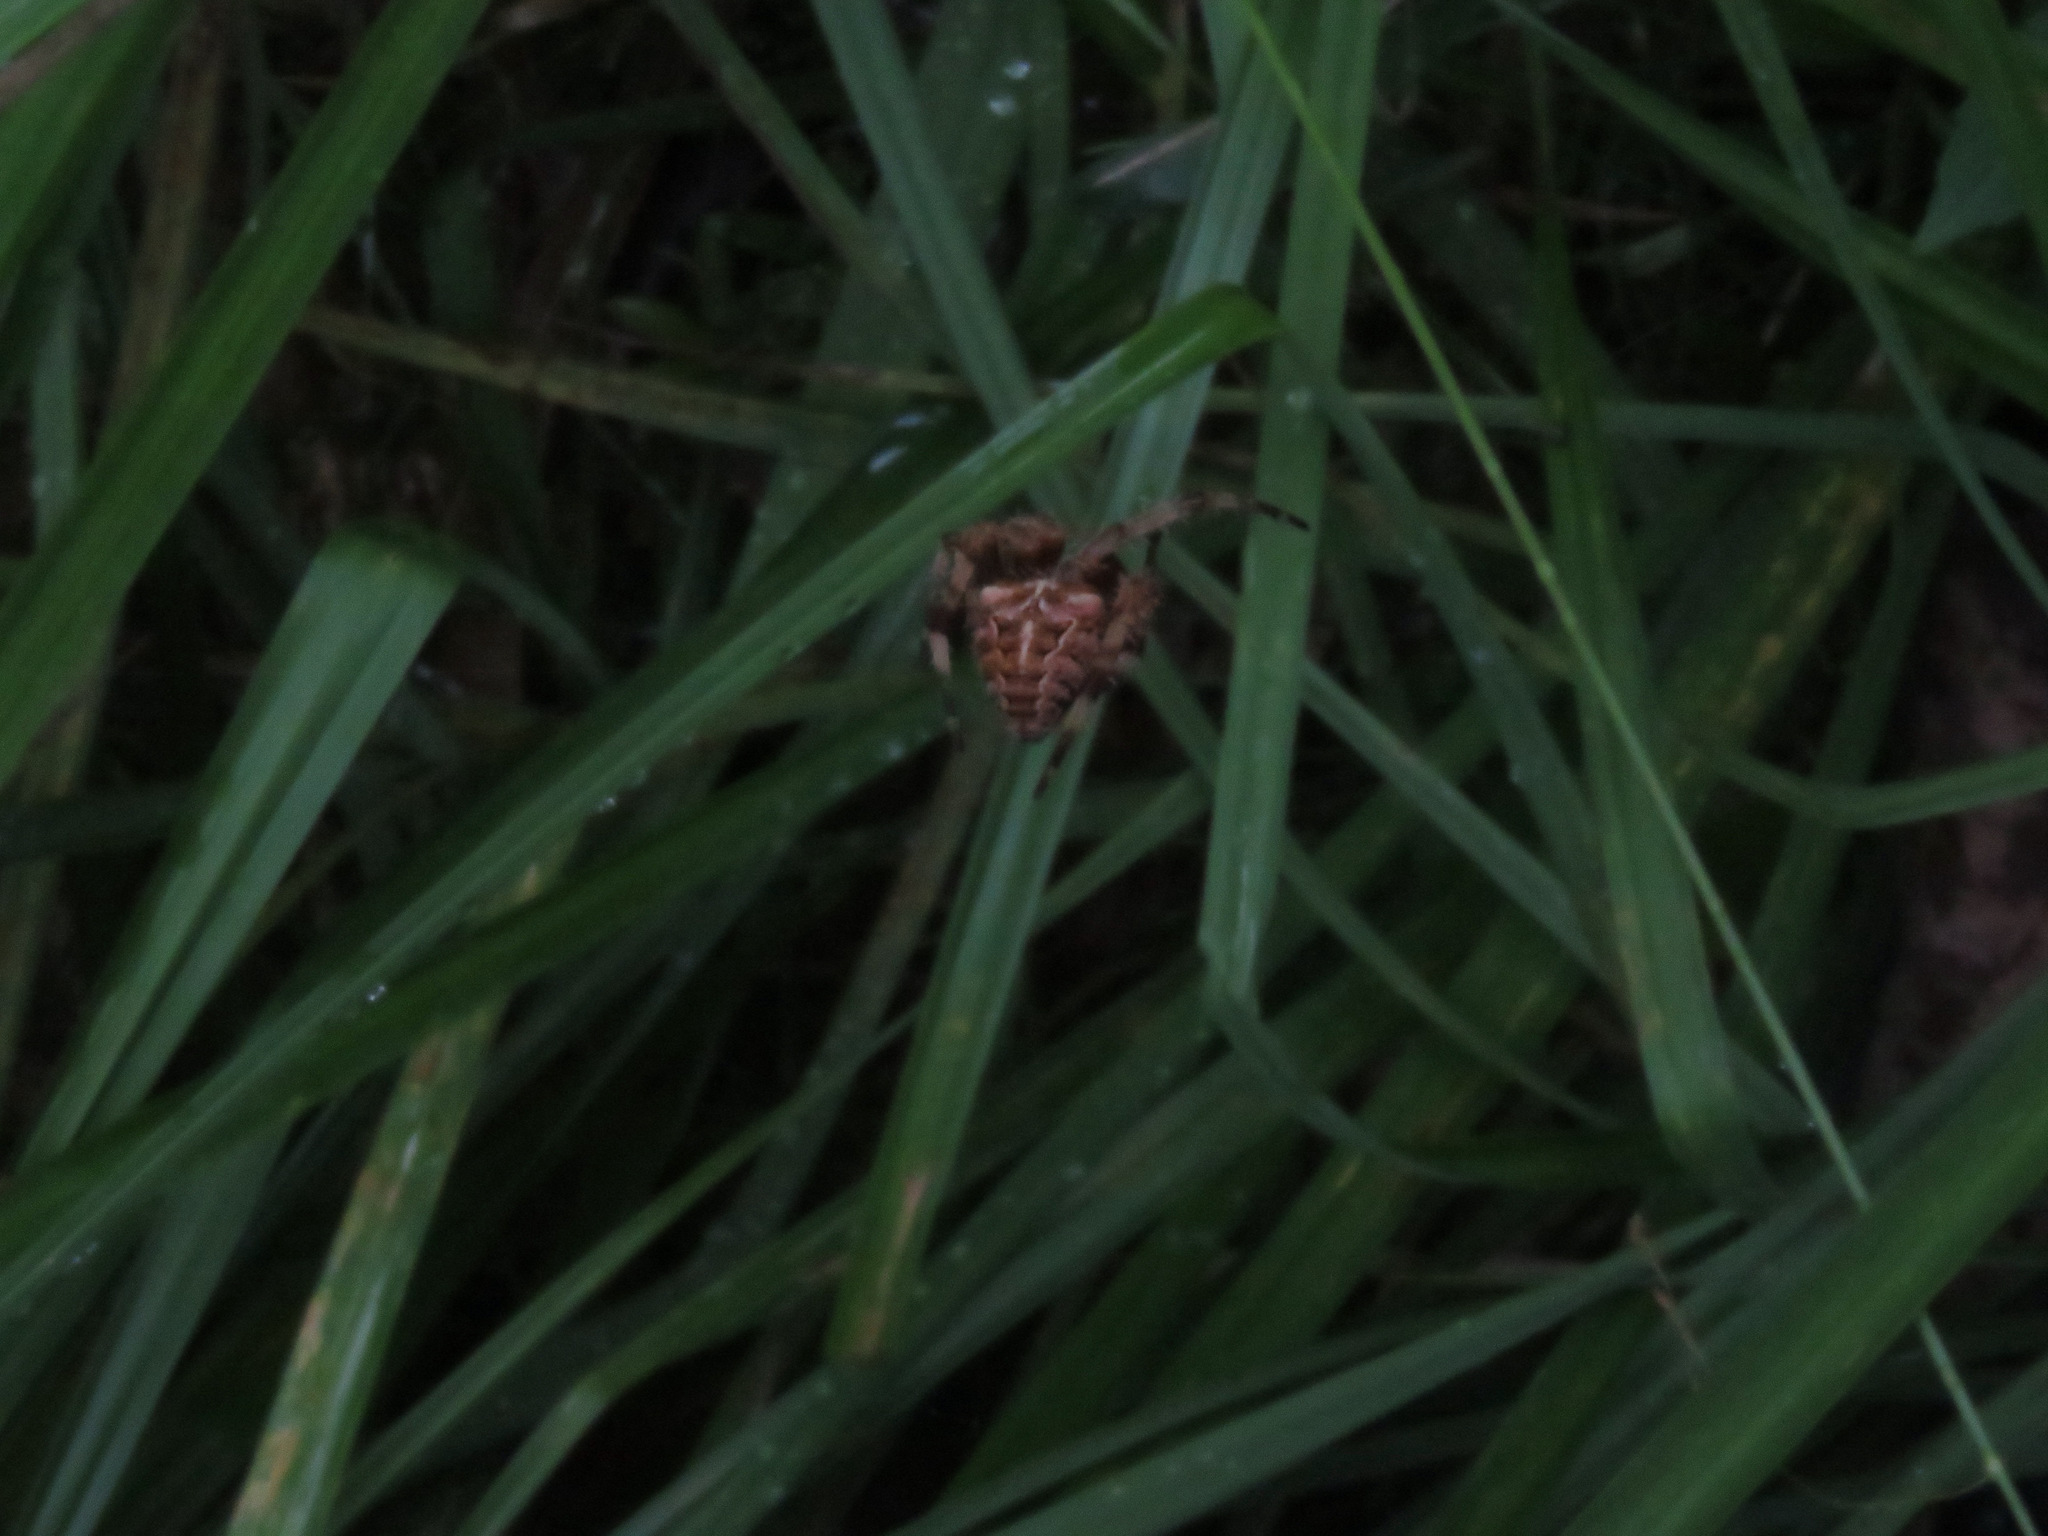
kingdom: Animalia
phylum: Arthropoda
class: Arachnida
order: Araneae
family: Araneidae
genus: Araneus
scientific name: Araneus gemmoides
